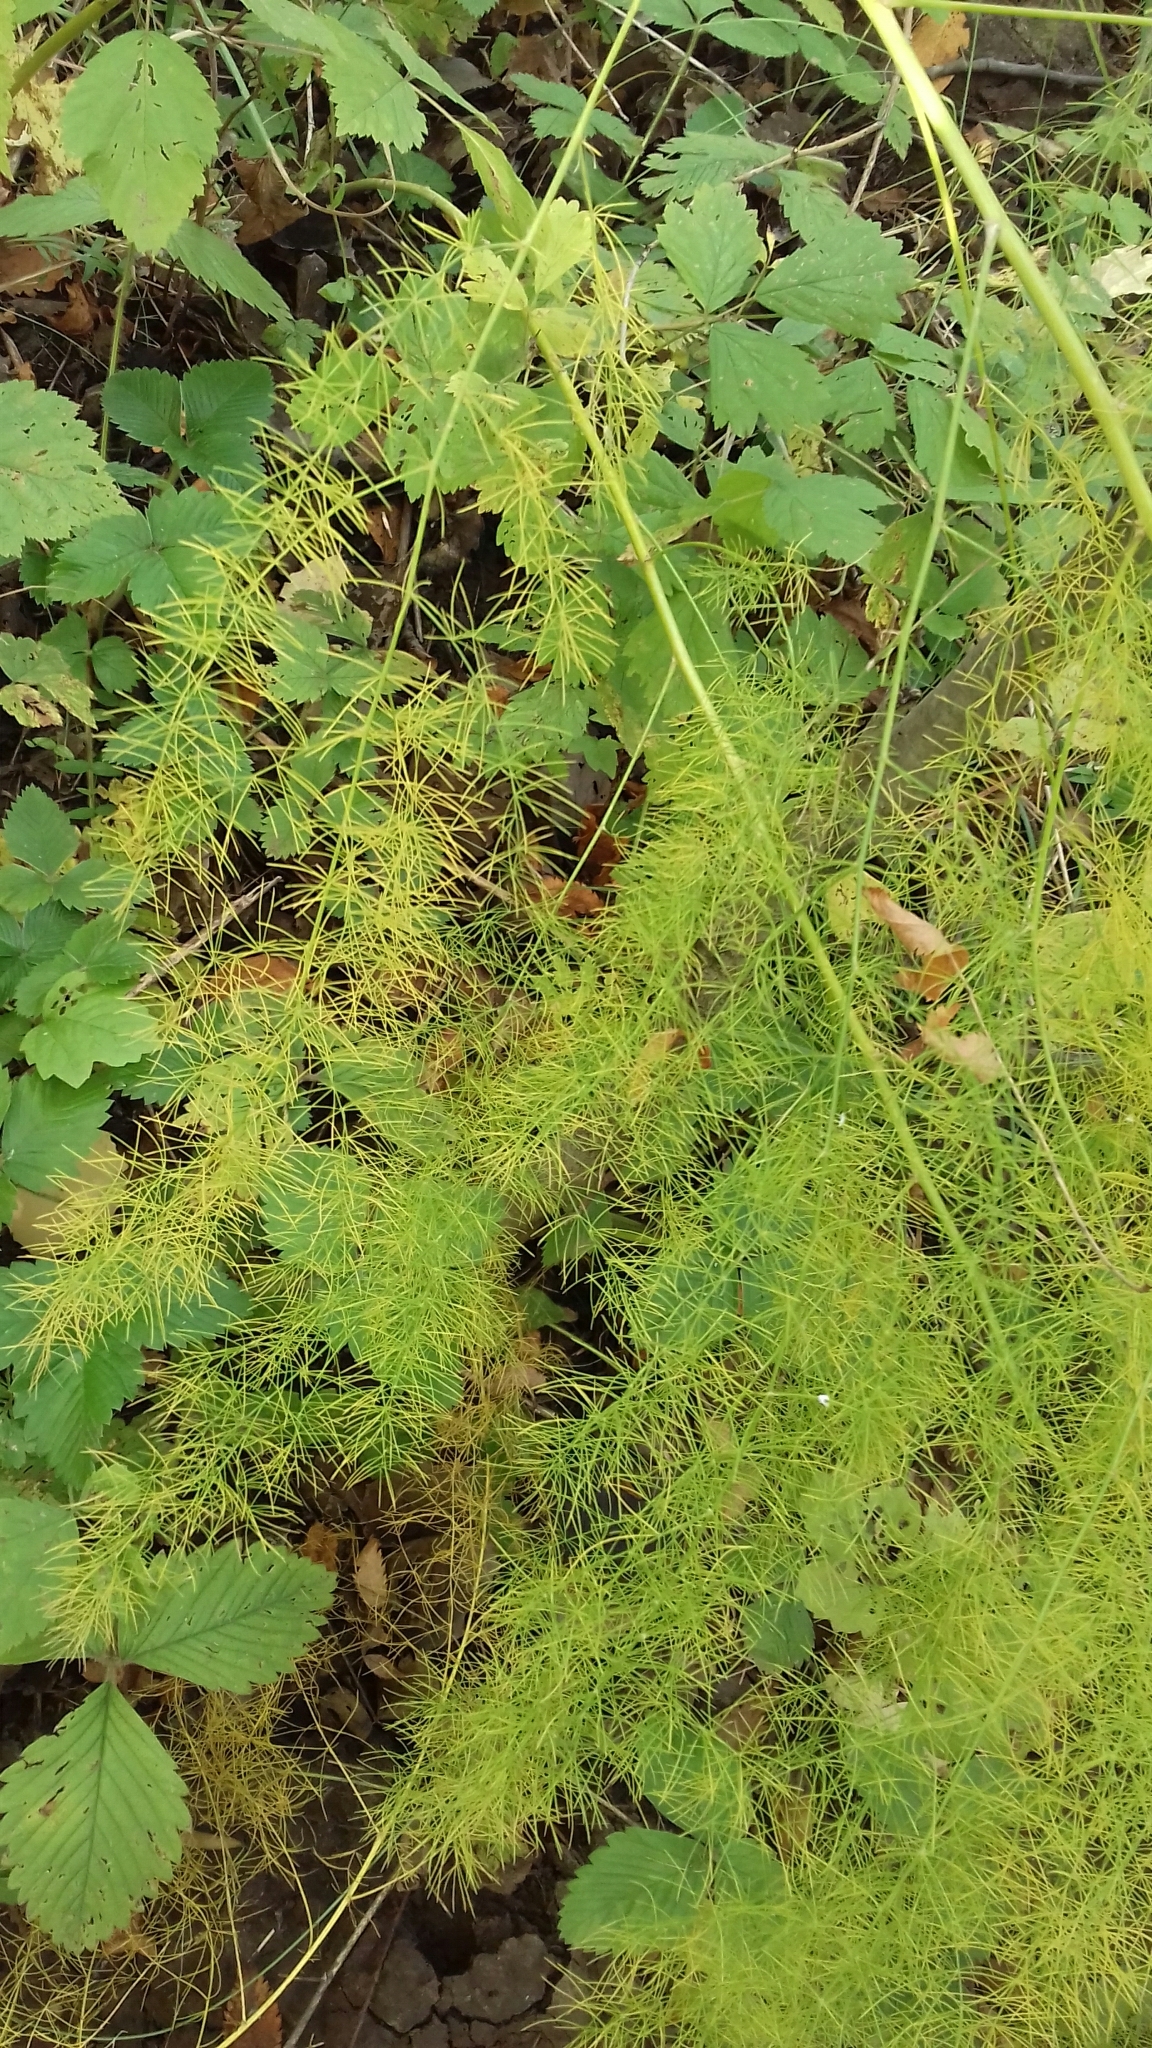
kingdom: Plantae
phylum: Tracheophyta
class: Liliopsida
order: Asparagales
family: Asparagaceae
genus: Asparagus
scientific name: Asparagus officinalis
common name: Garden asparagus
